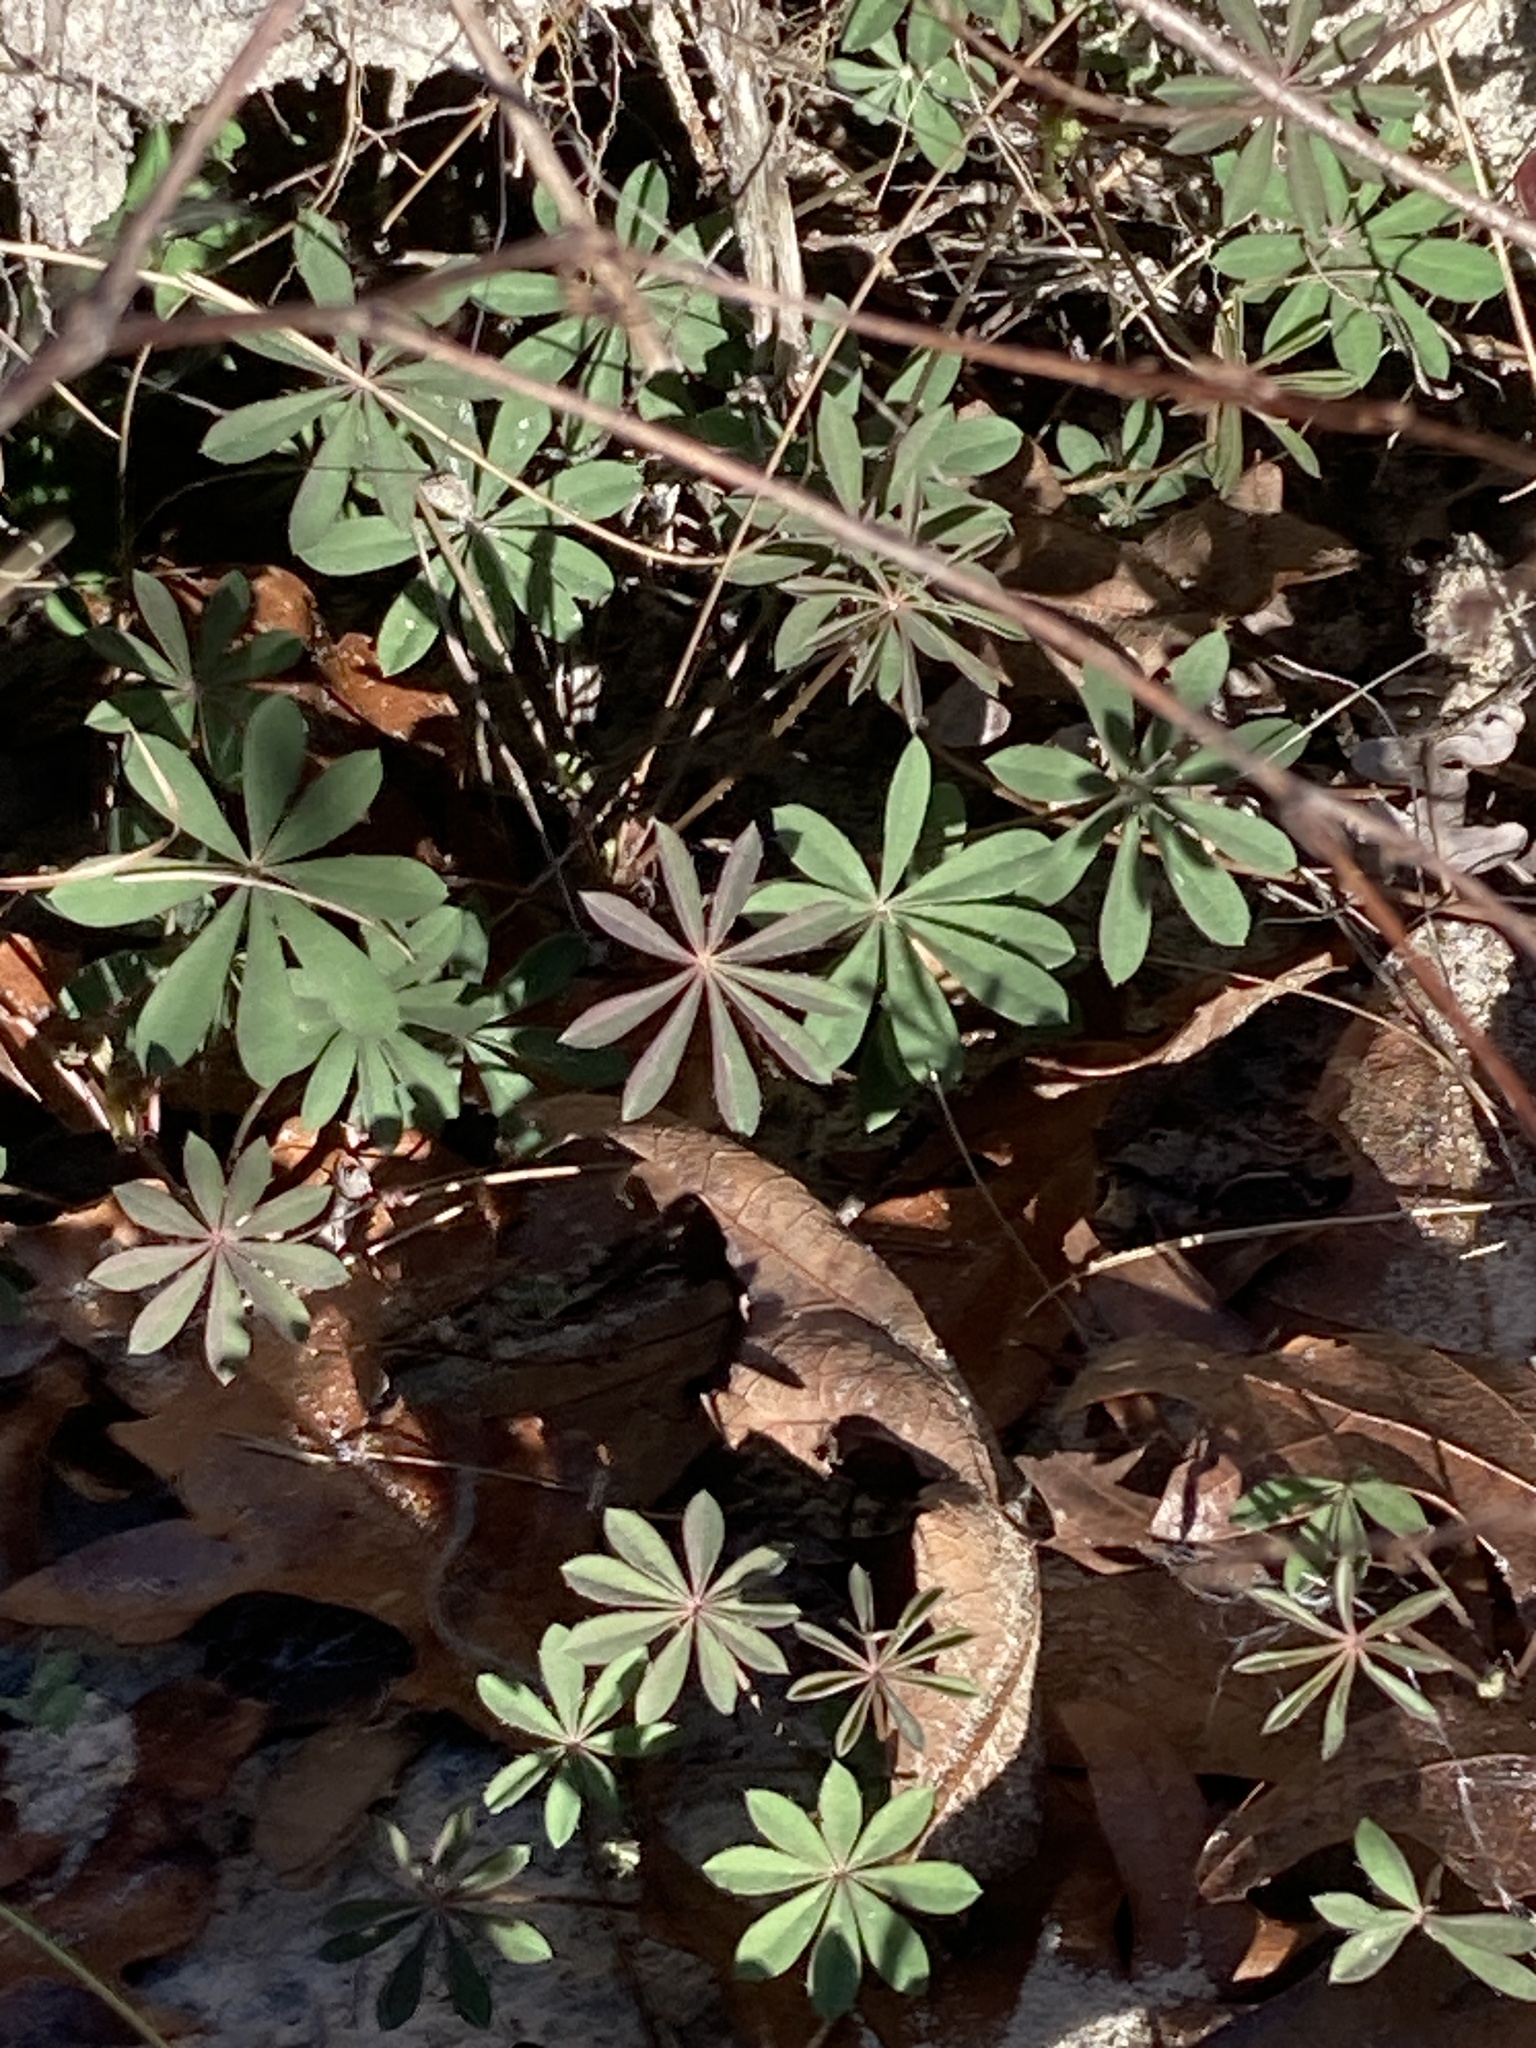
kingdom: Plantae
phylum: Tracheophyta
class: Magnoliopsida
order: Fabales
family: Fabaceae
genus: Lupinus
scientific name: Lupinus perennis
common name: Sundial lupine
